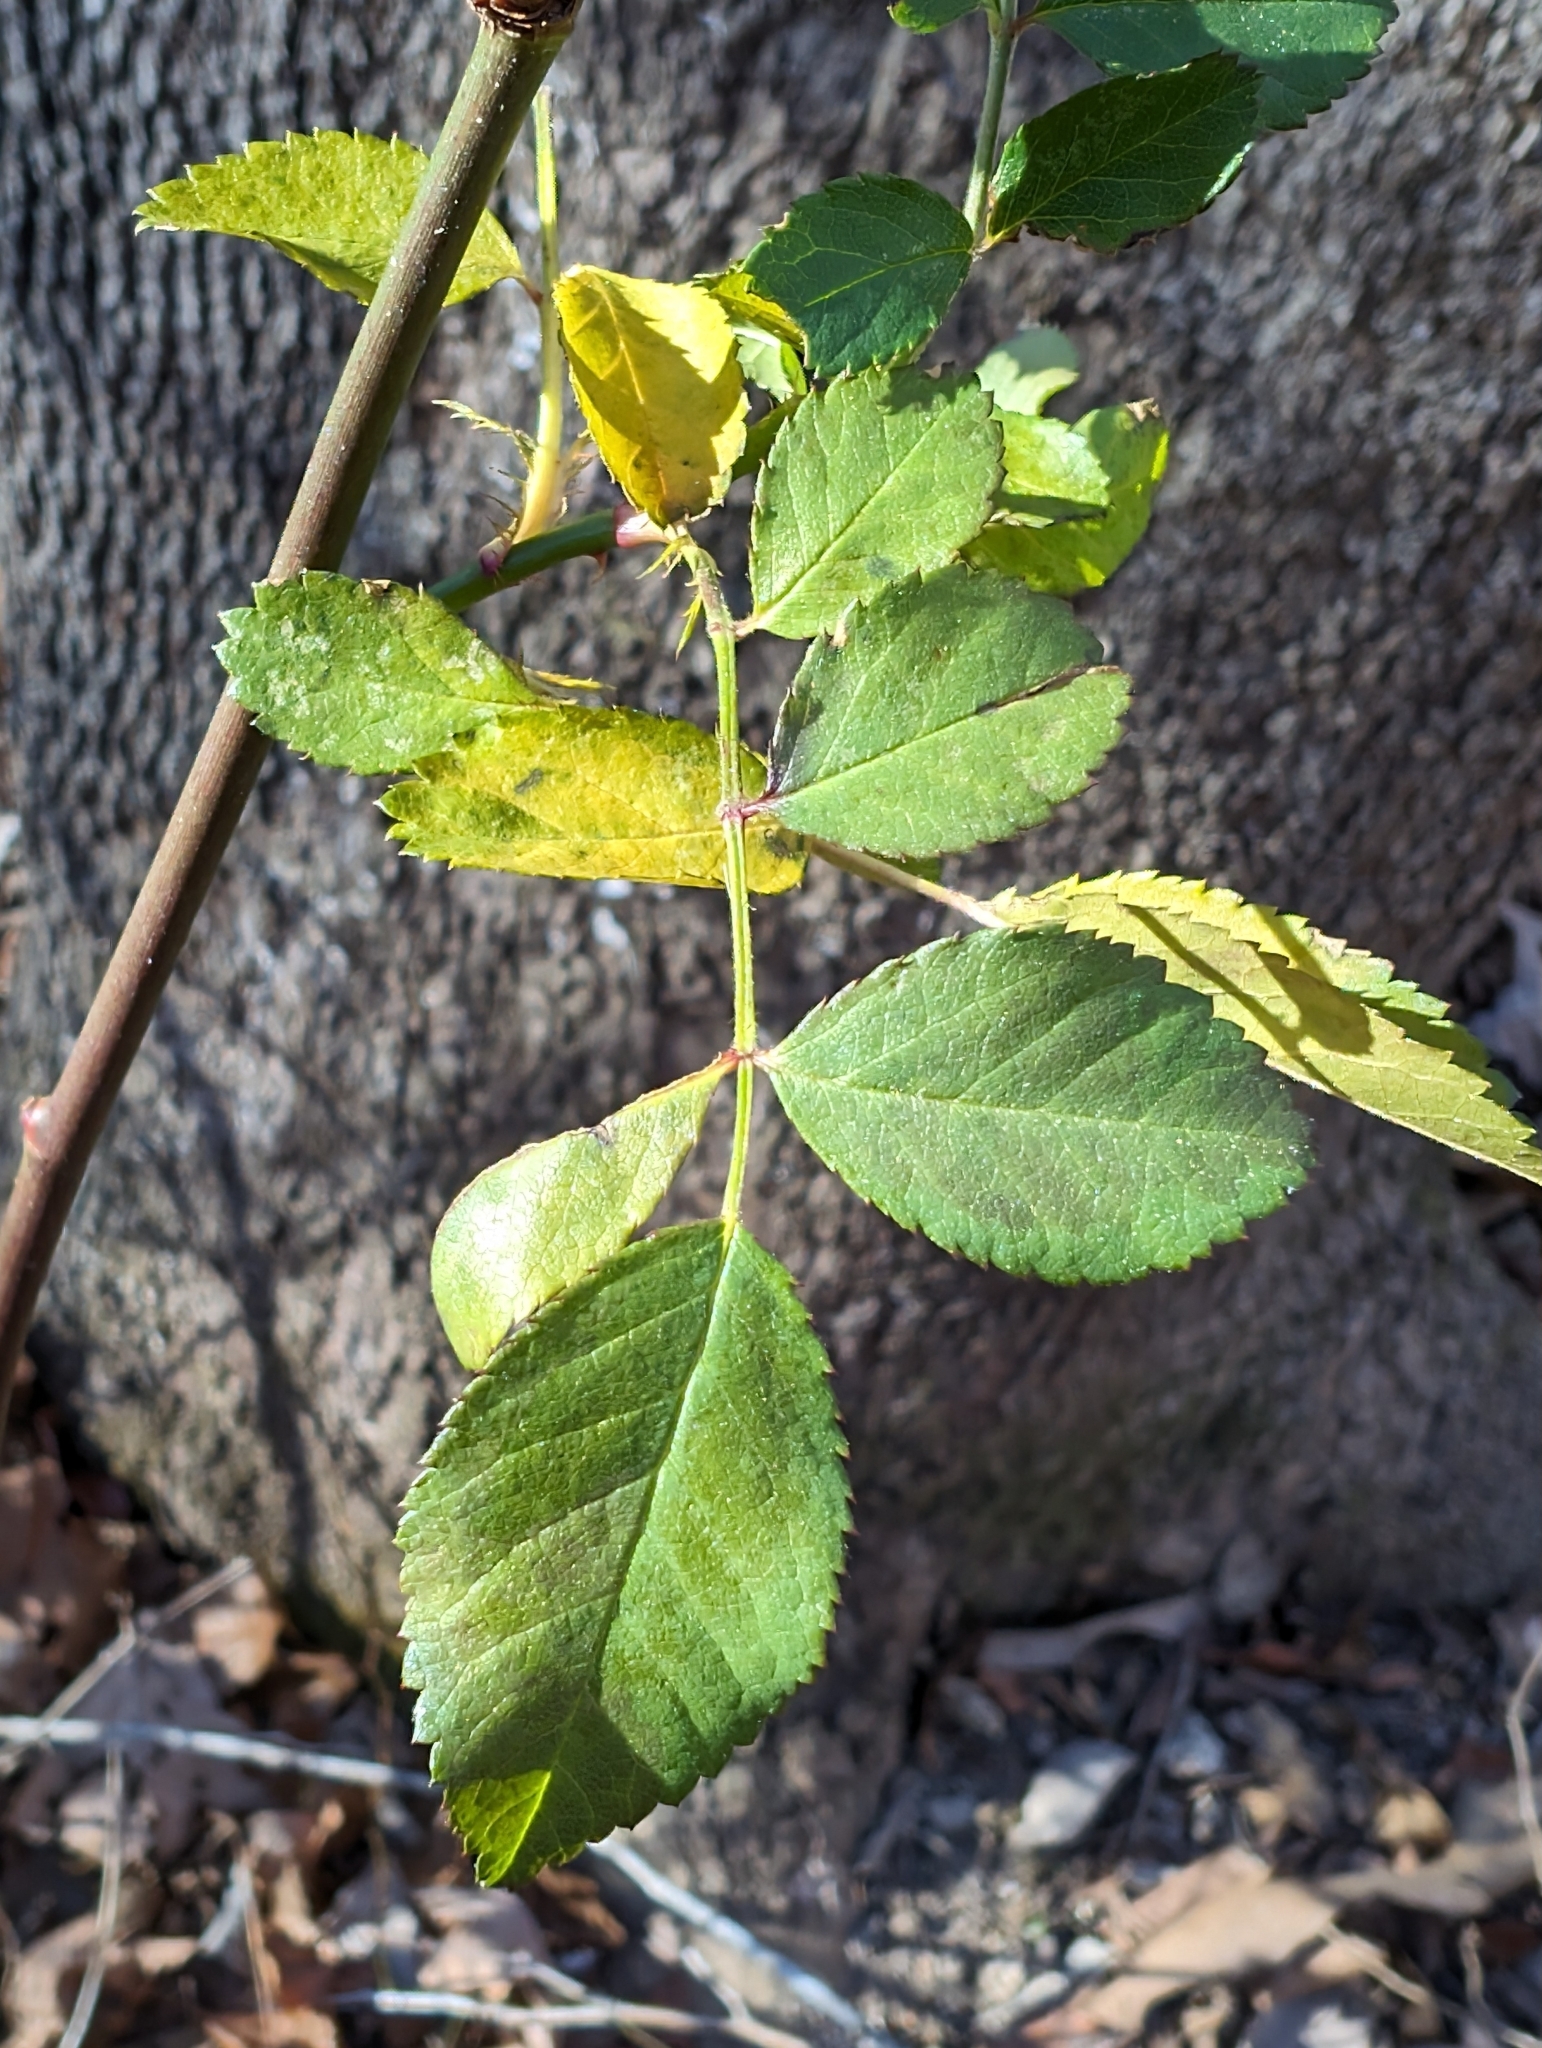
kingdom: Plantae
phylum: Tracheophyta
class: Magnoliopsida
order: Rosales
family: Rosaceae
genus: Rosa
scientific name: Rosa multiflora
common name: Multiflora rose
